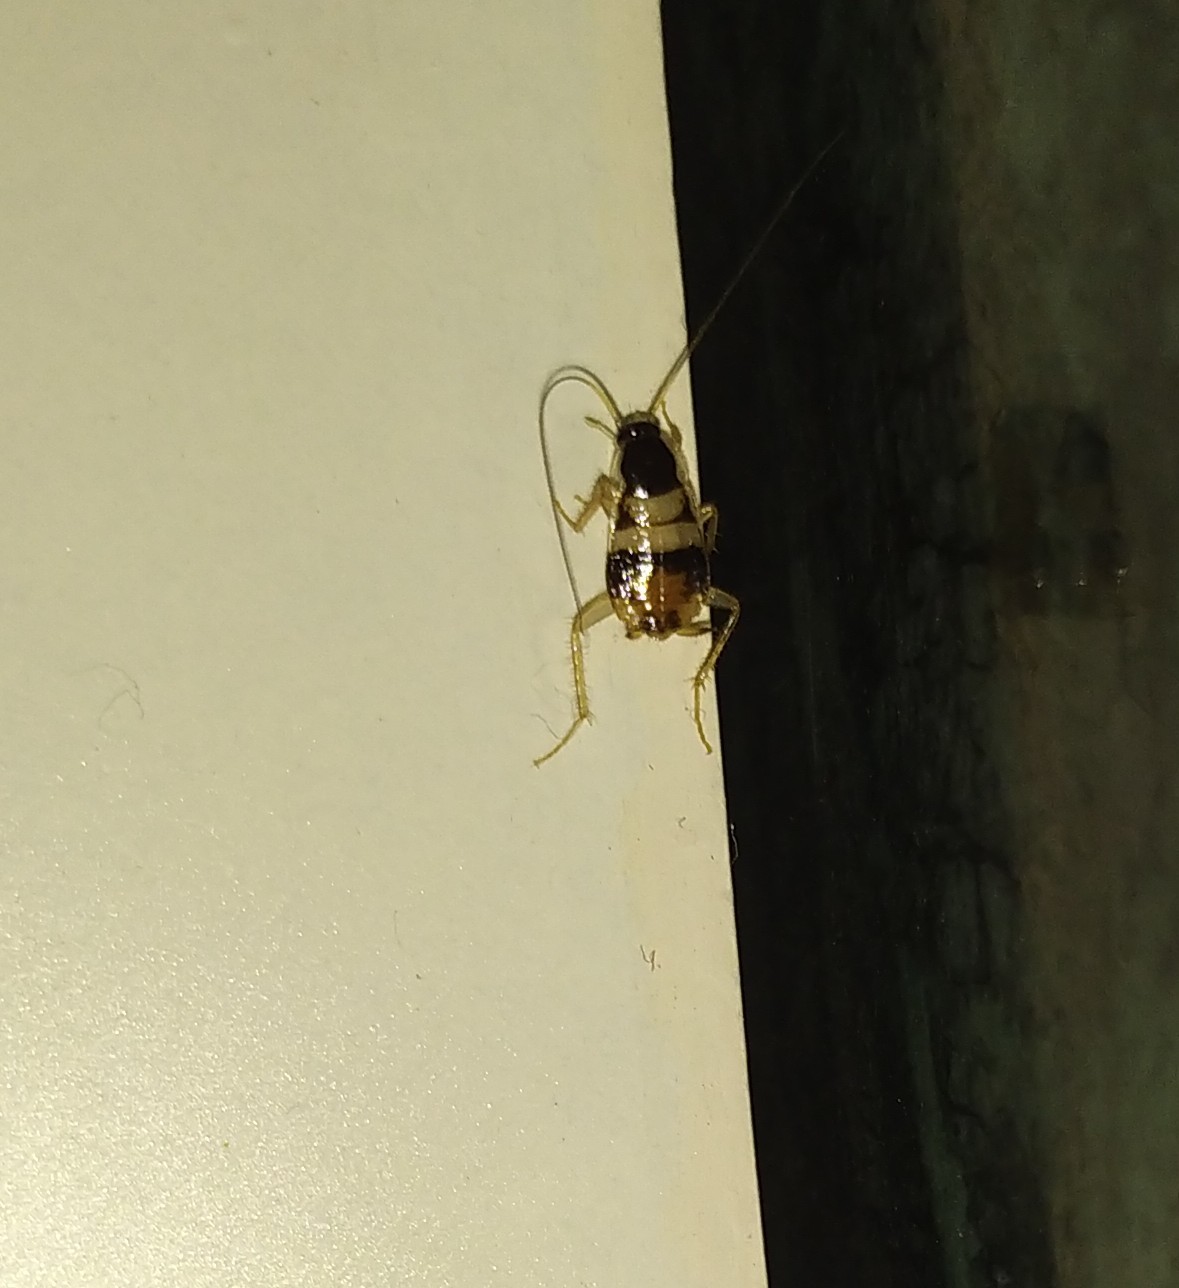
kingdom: Animalia
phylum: Arthropoda
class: Insecta
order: Blattodea
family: Ectobiidae
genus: Supella
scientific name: Supella longipalpa
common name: Brown-banded cockroach
